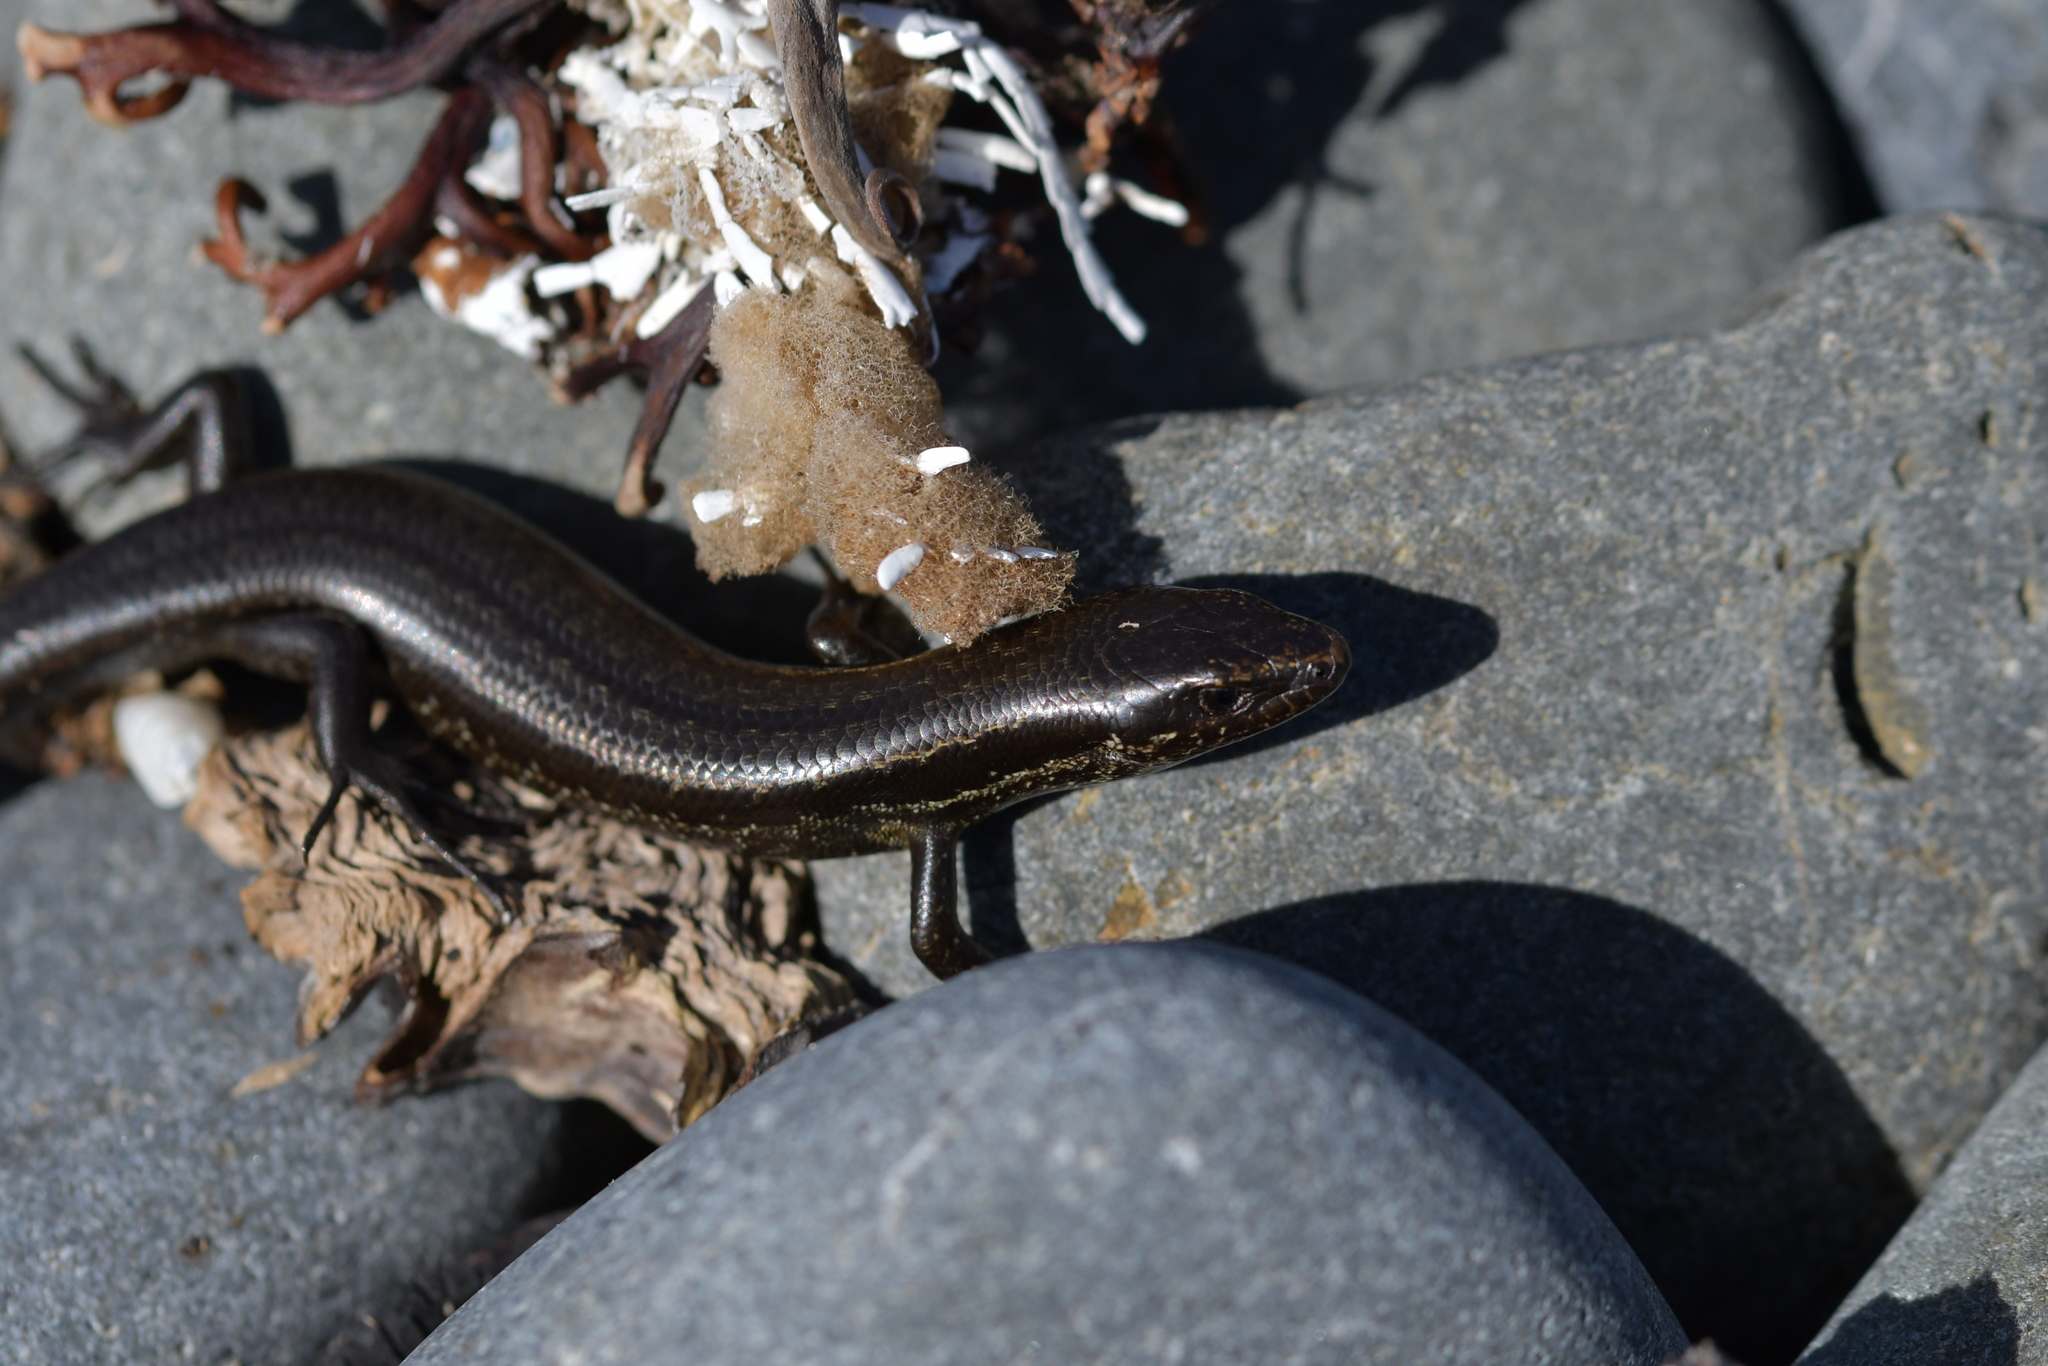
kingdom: Animalia
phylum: Chordata
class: Squamata
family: Scincidae
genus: Oligosoma
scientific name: Oligosoma polychroma
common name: Common new zealand skink
